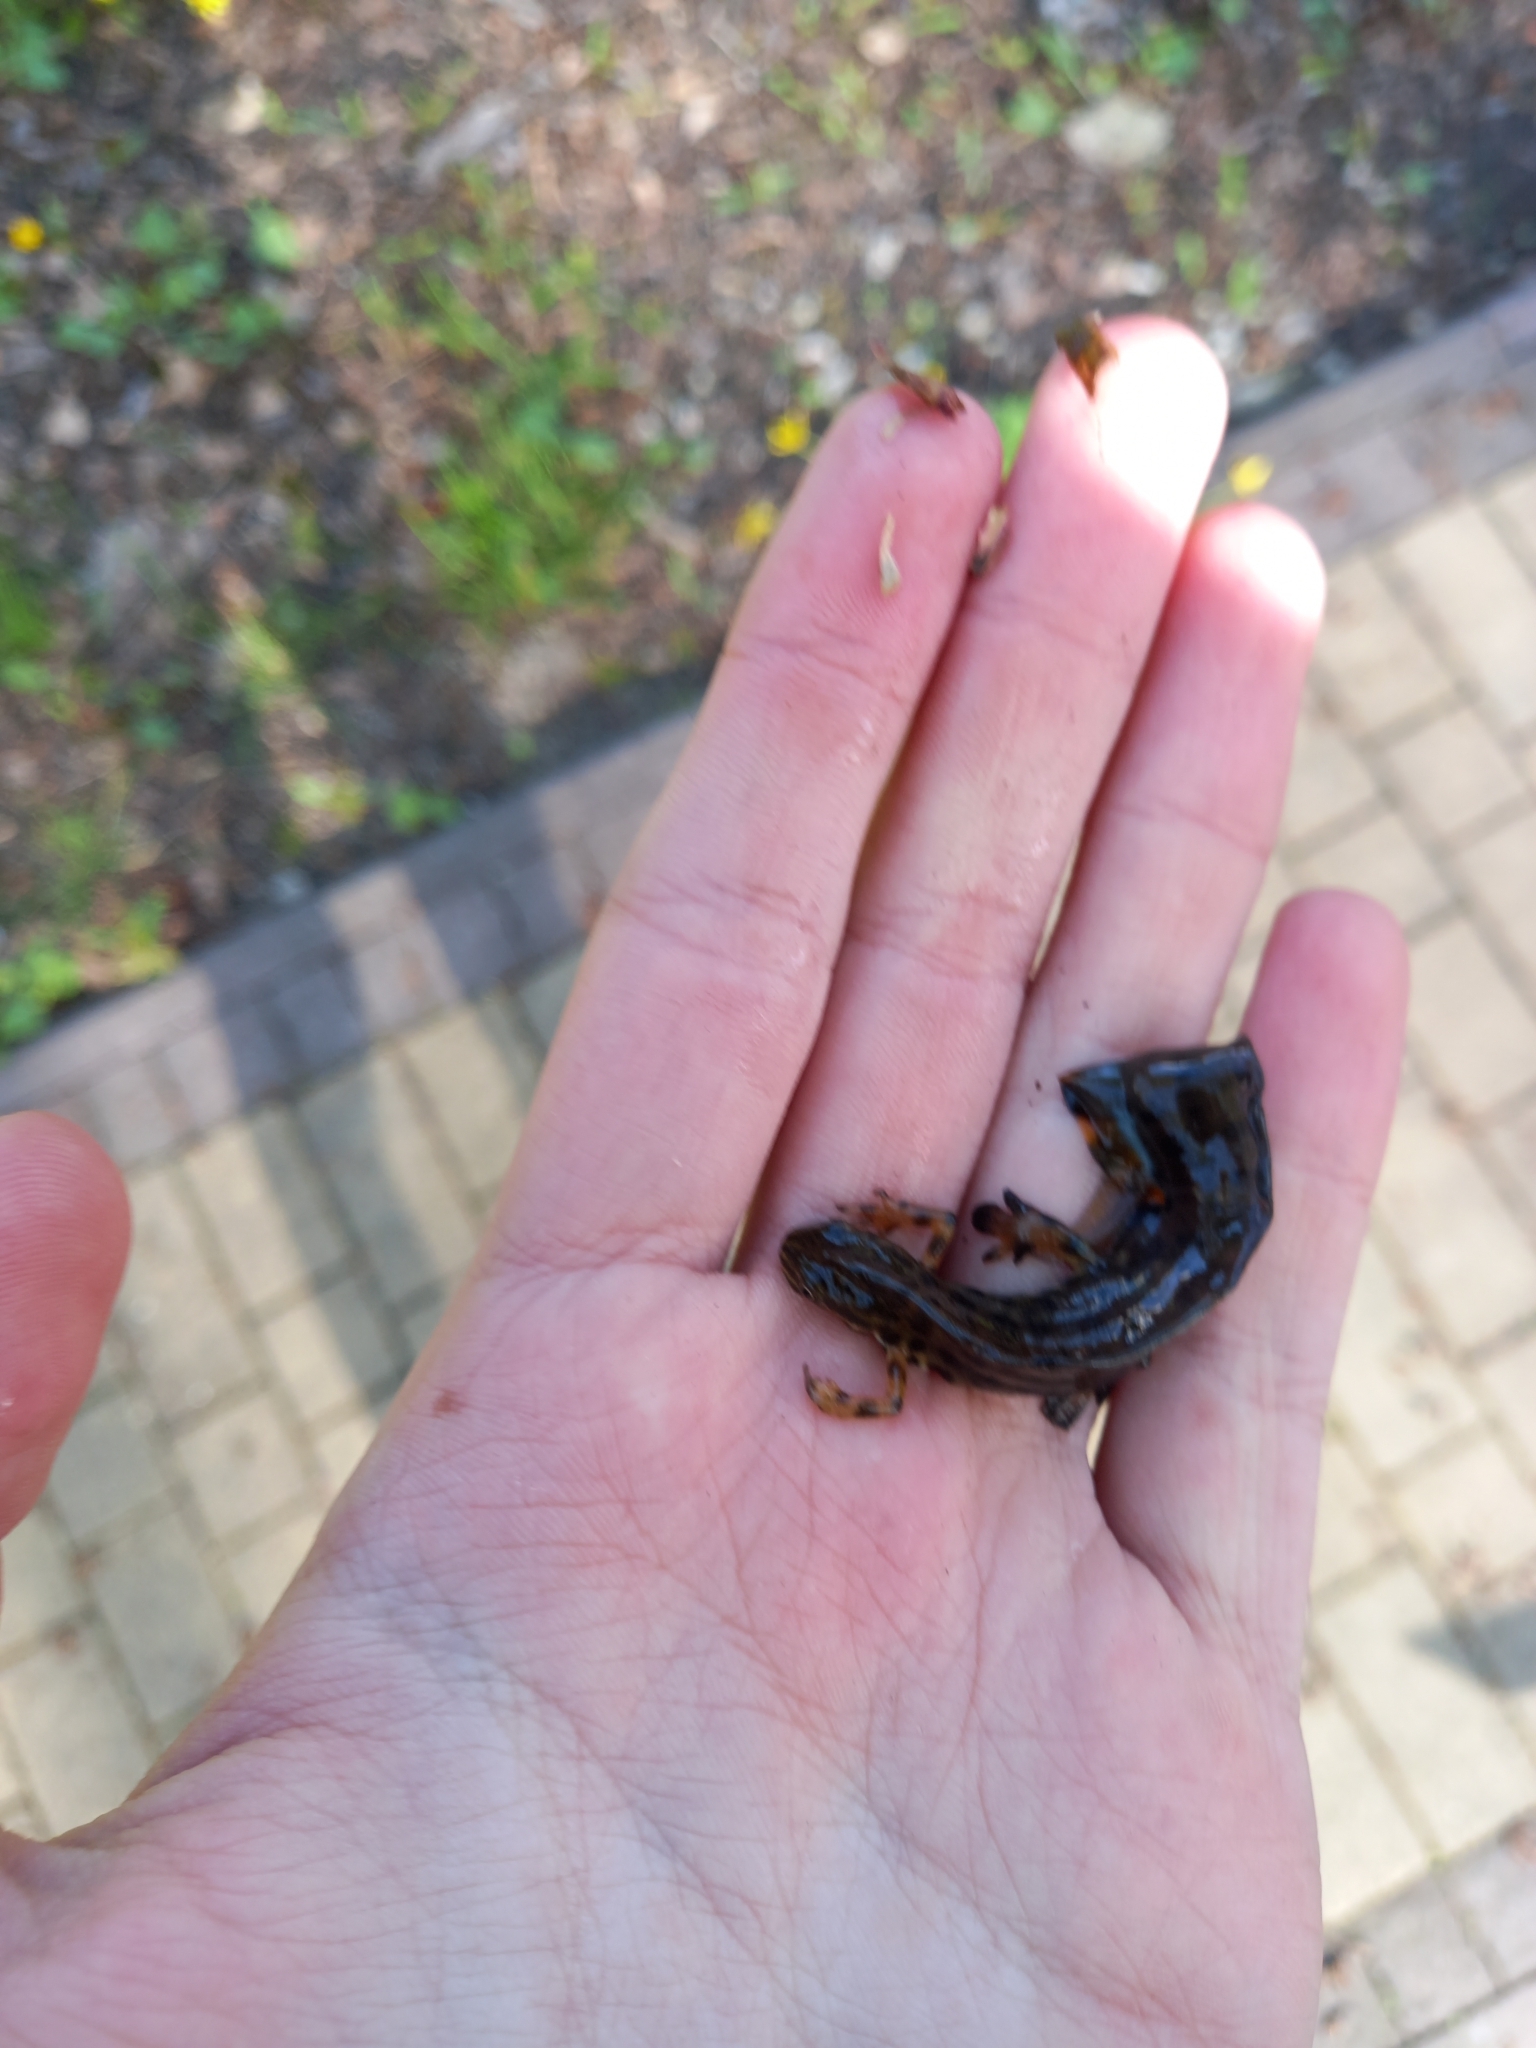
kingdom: Animalia
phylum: Chordata
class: Amphibia
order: Caudata
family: Salamandridae
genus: Lissotriton
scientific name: Lissotriton vulgaris
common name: Smooth newt
